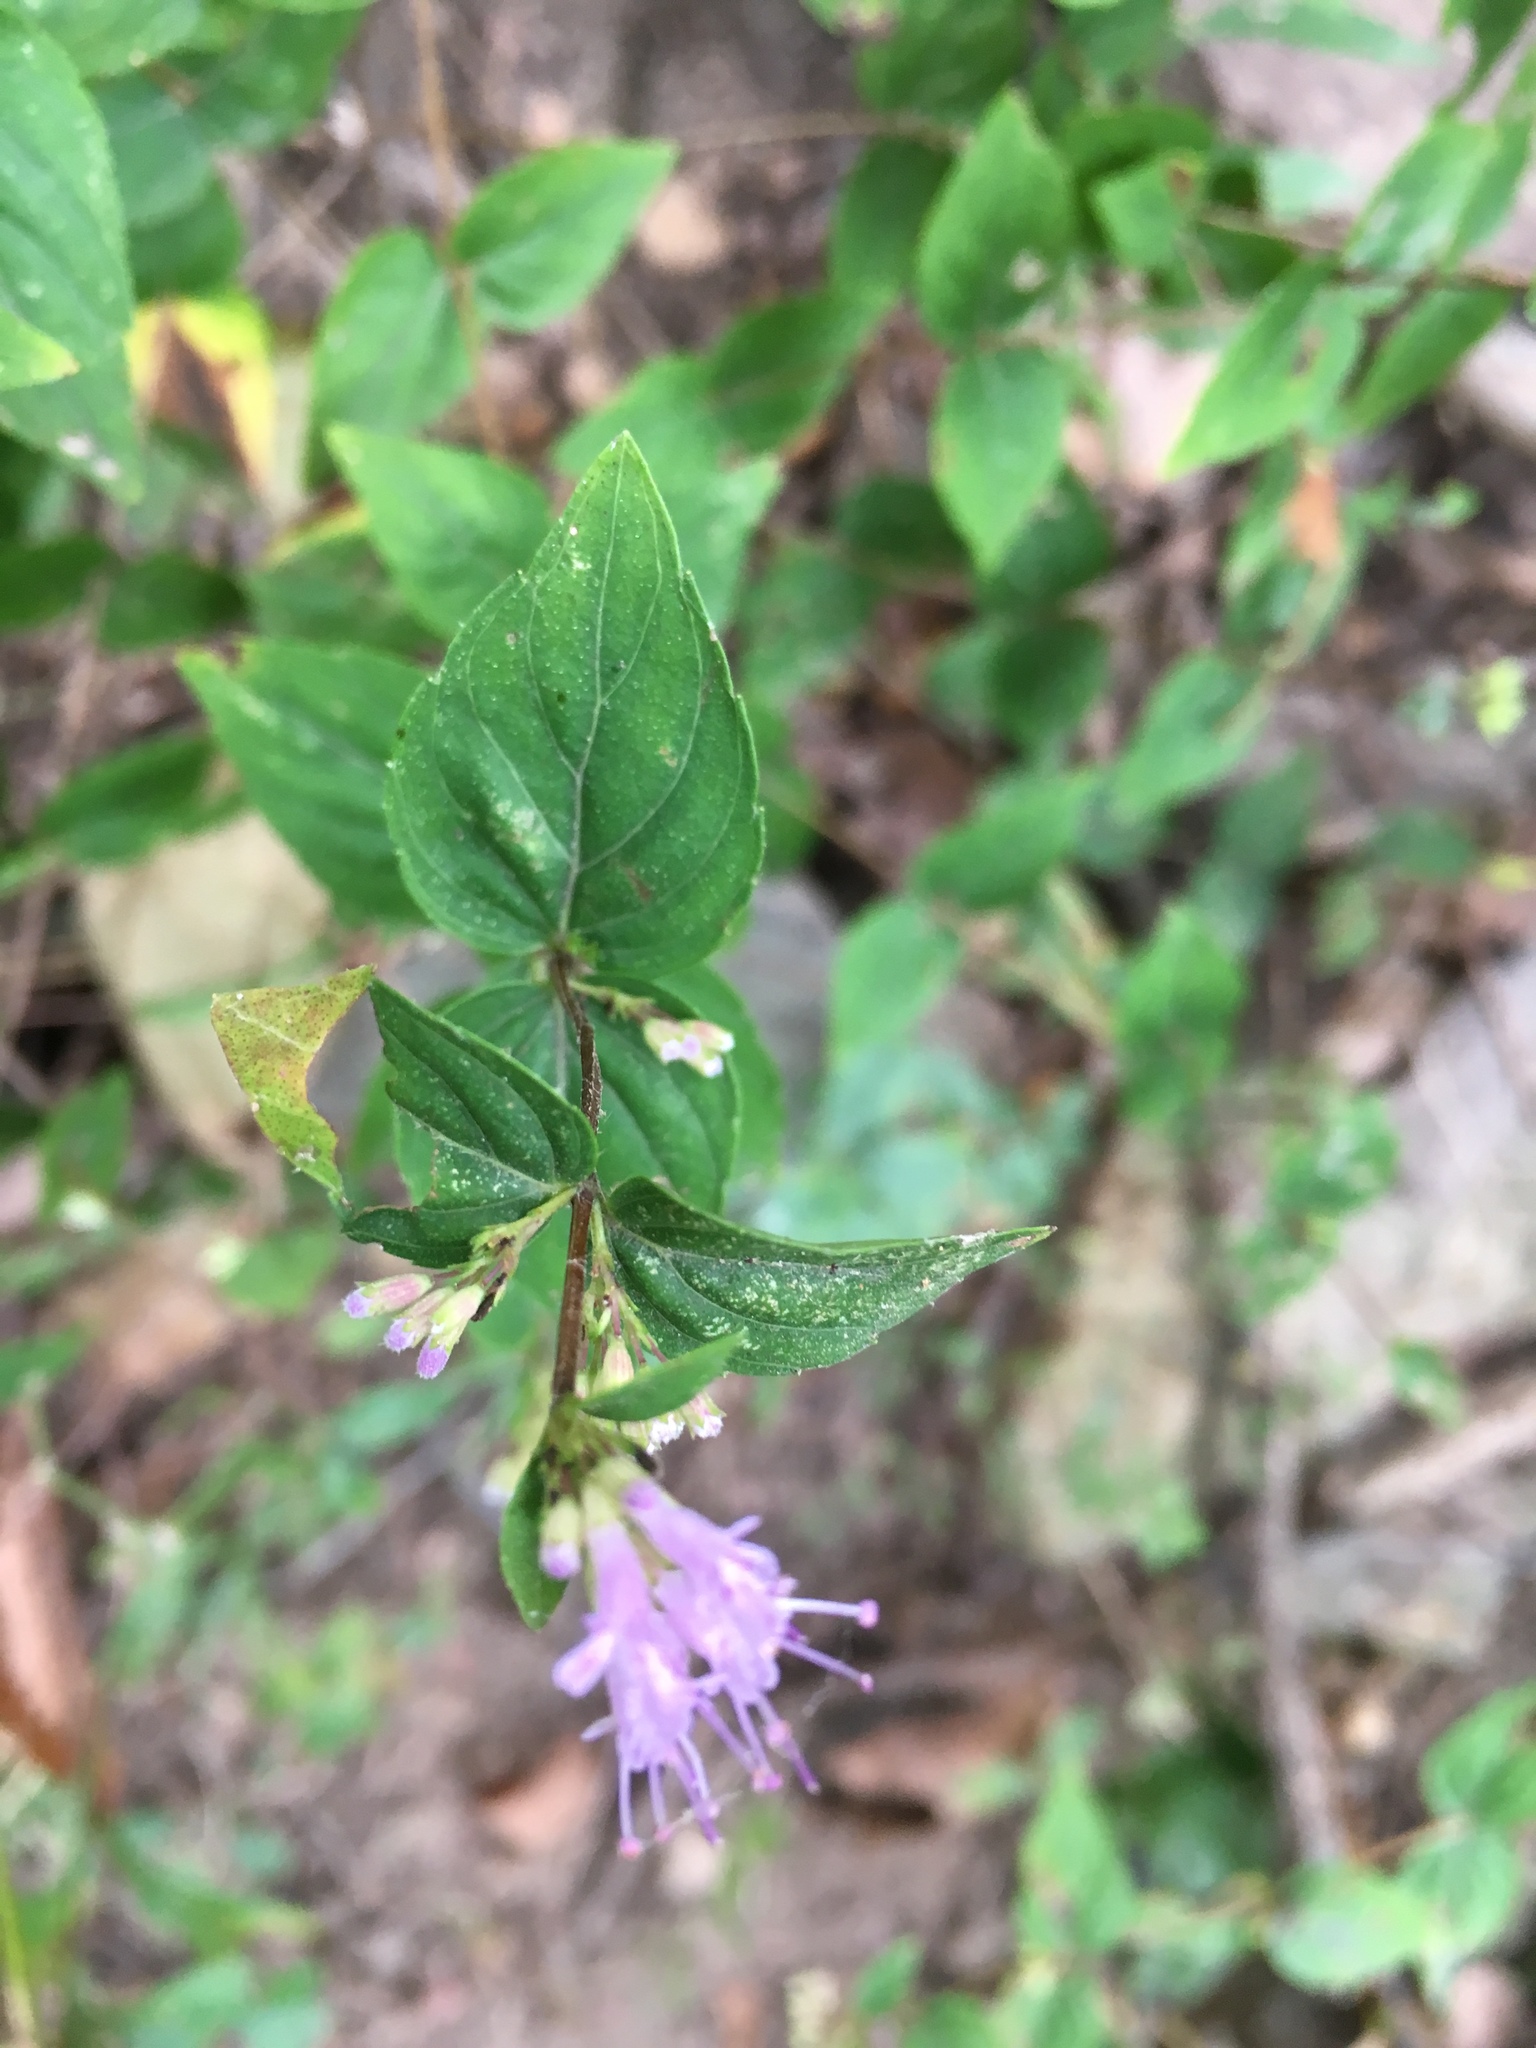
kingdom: Plantae
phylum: Tracheophyta
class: Magnoliopsida
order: Lamiales
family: Lamiaceae
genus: Cunila
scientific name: Cunila origanoides
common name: American dittany
